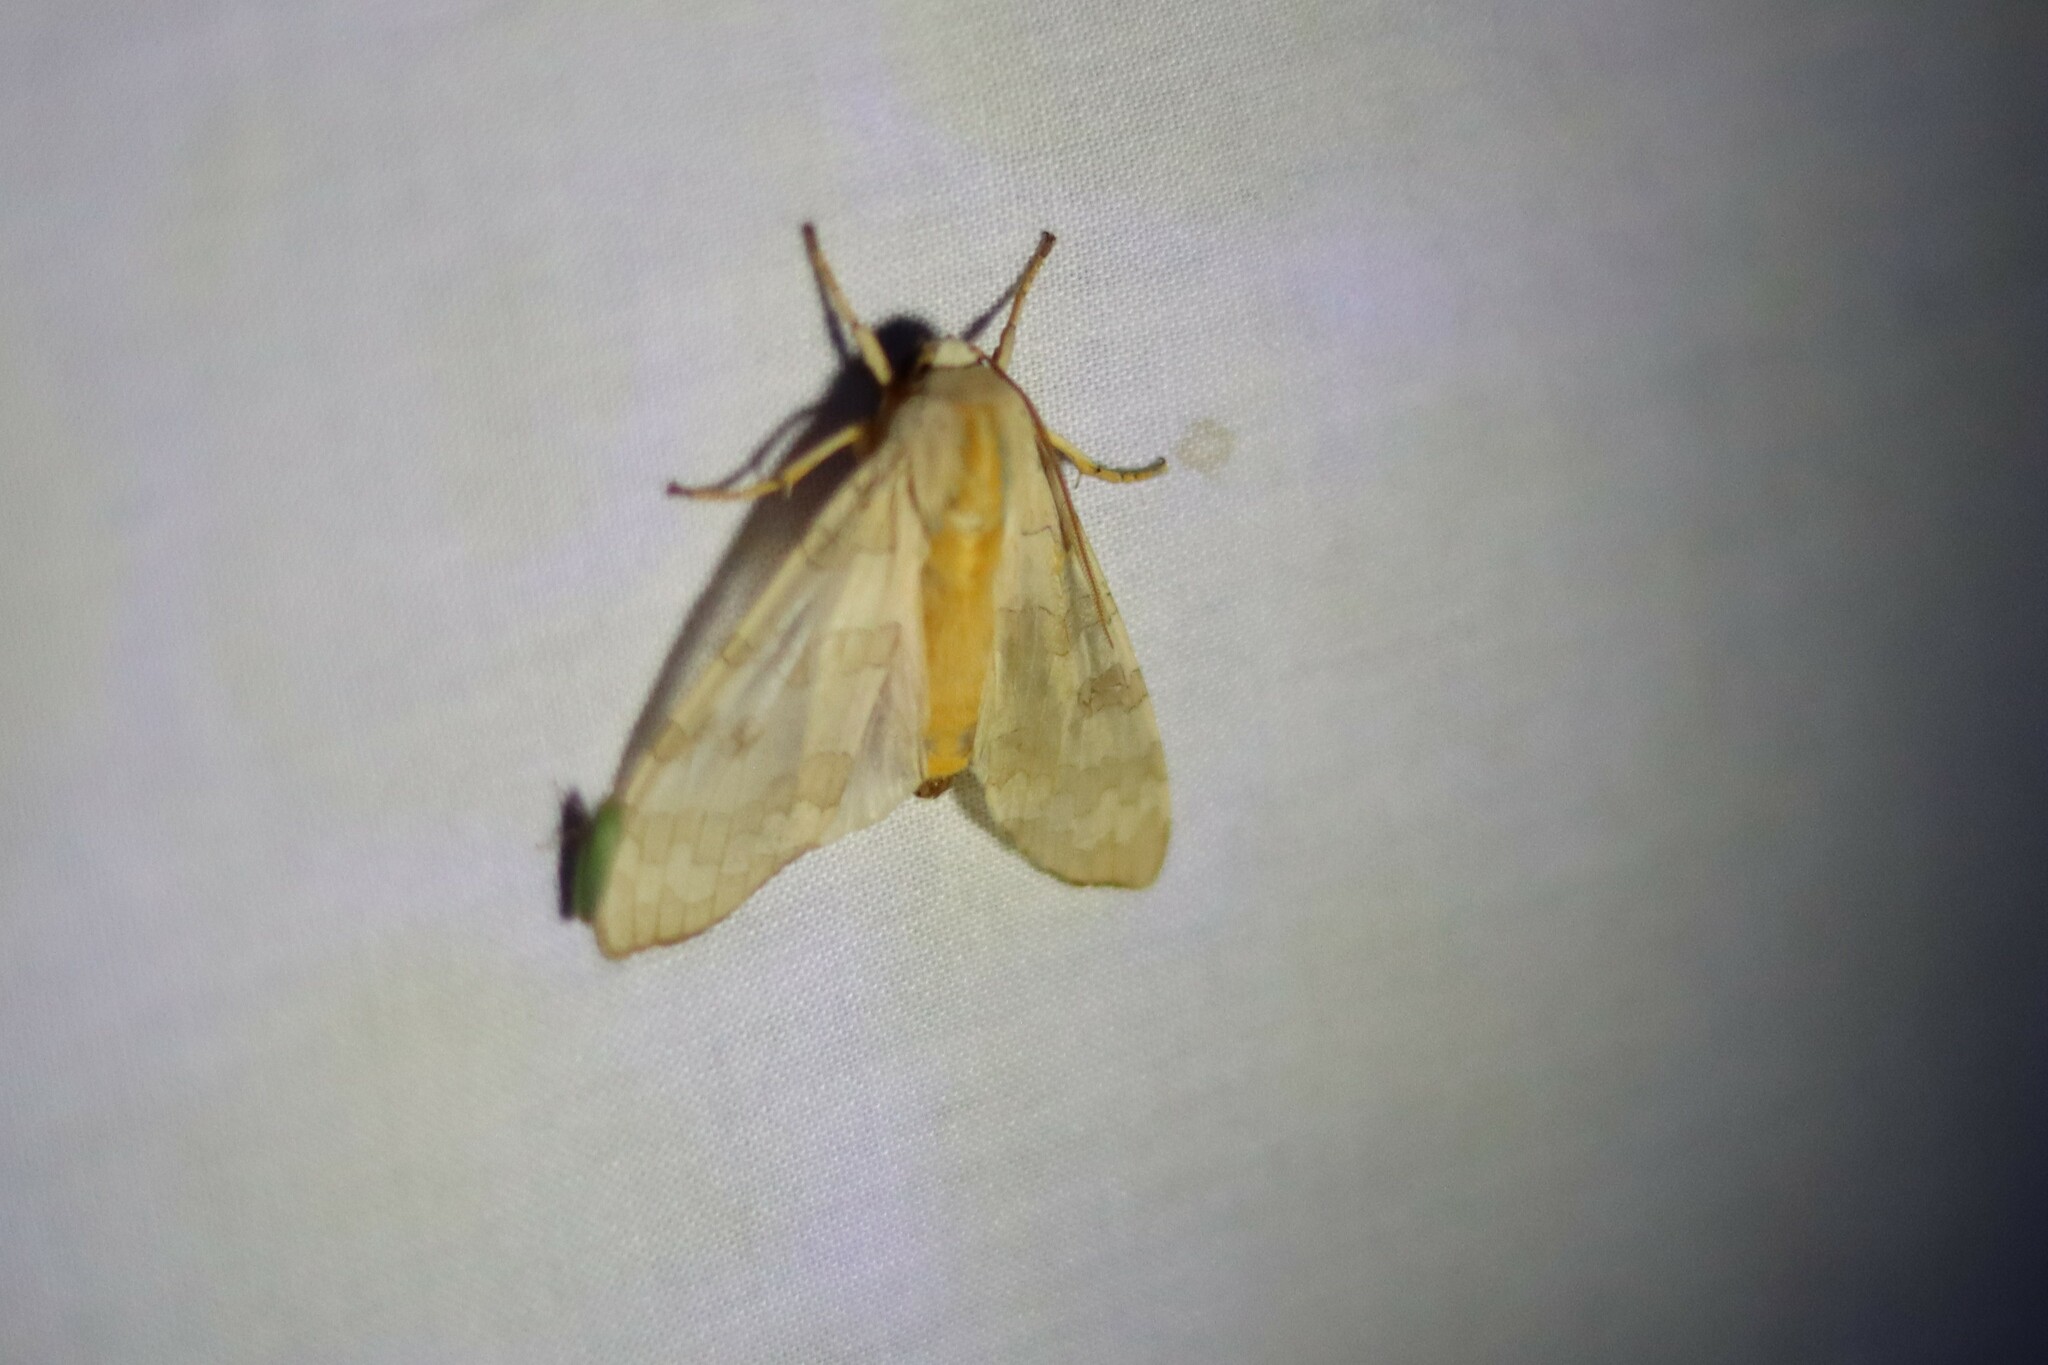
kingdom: Animalia
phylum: Arthropoda
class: Insecta
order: Lepidoptera
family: Erebidae
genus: Halysidota
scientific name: Halysidota
